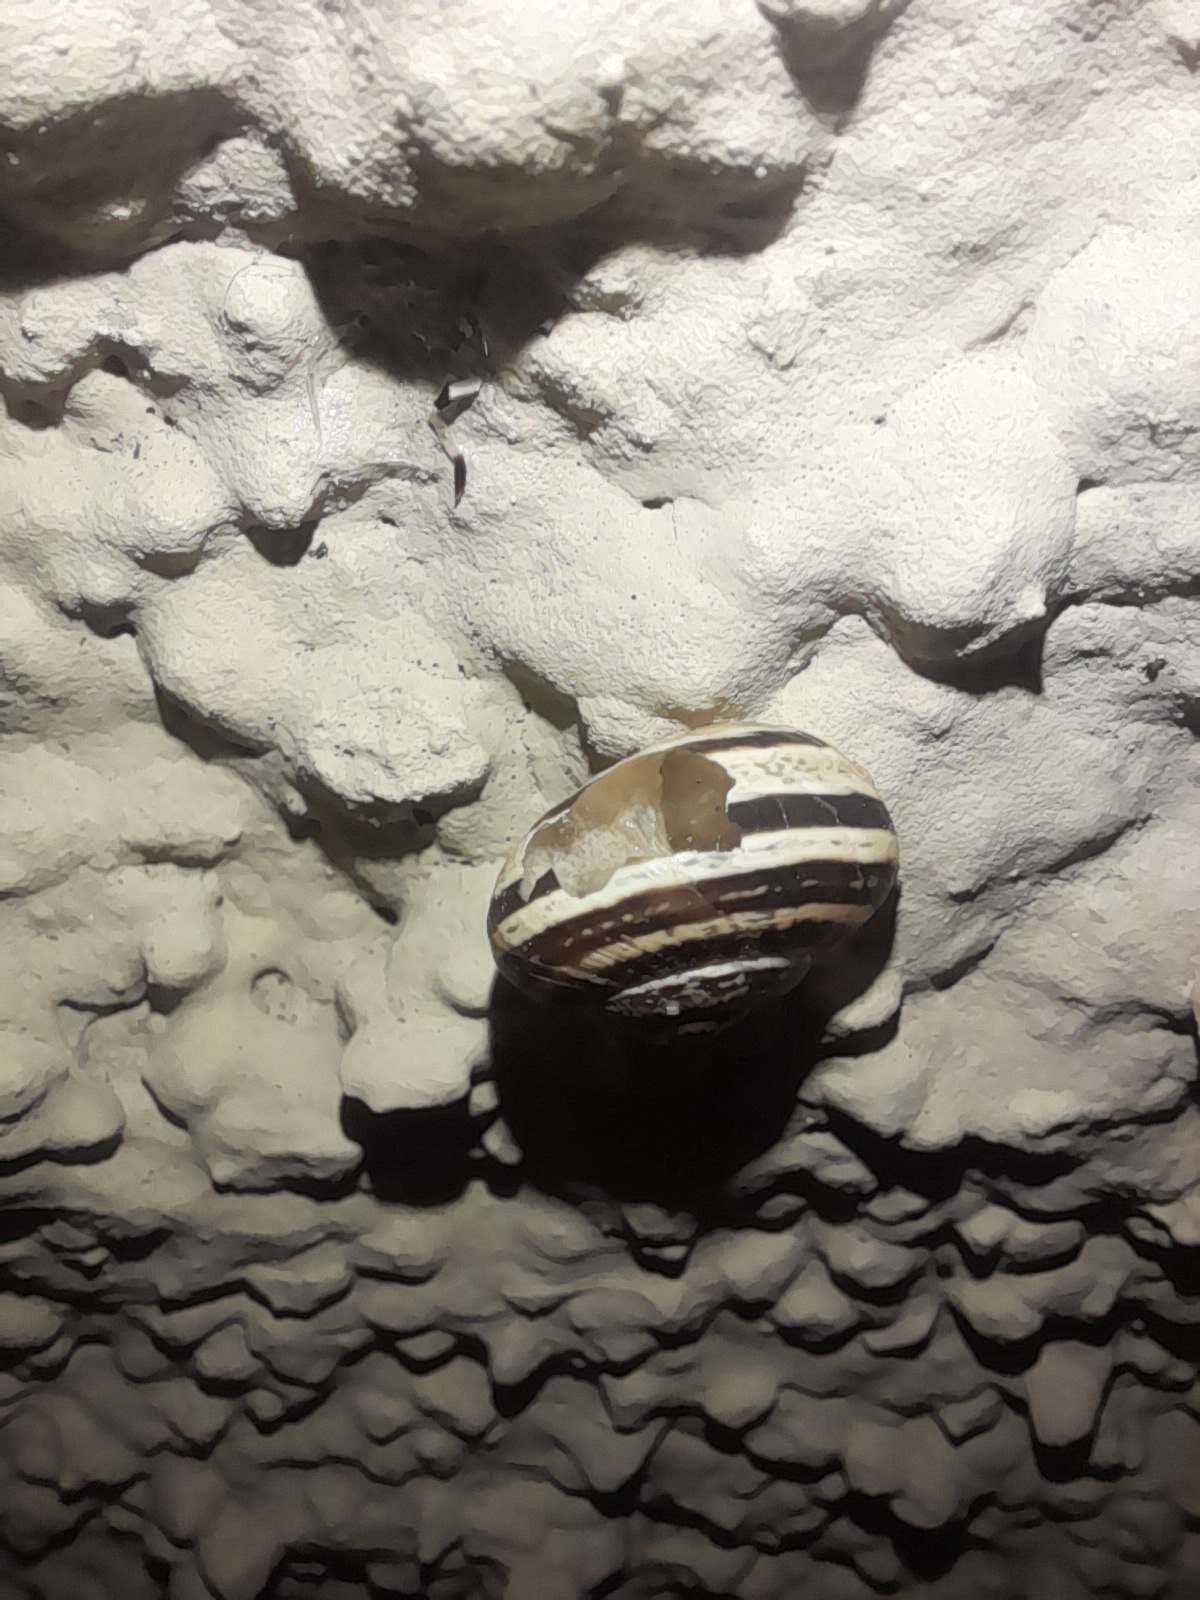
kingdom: Animalia
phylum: Mollusca
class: Gastropoda
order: Stylommatophora
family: Helicidae
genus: Eobania
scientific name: Eobania vermiculata
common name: Chocolateband snail
